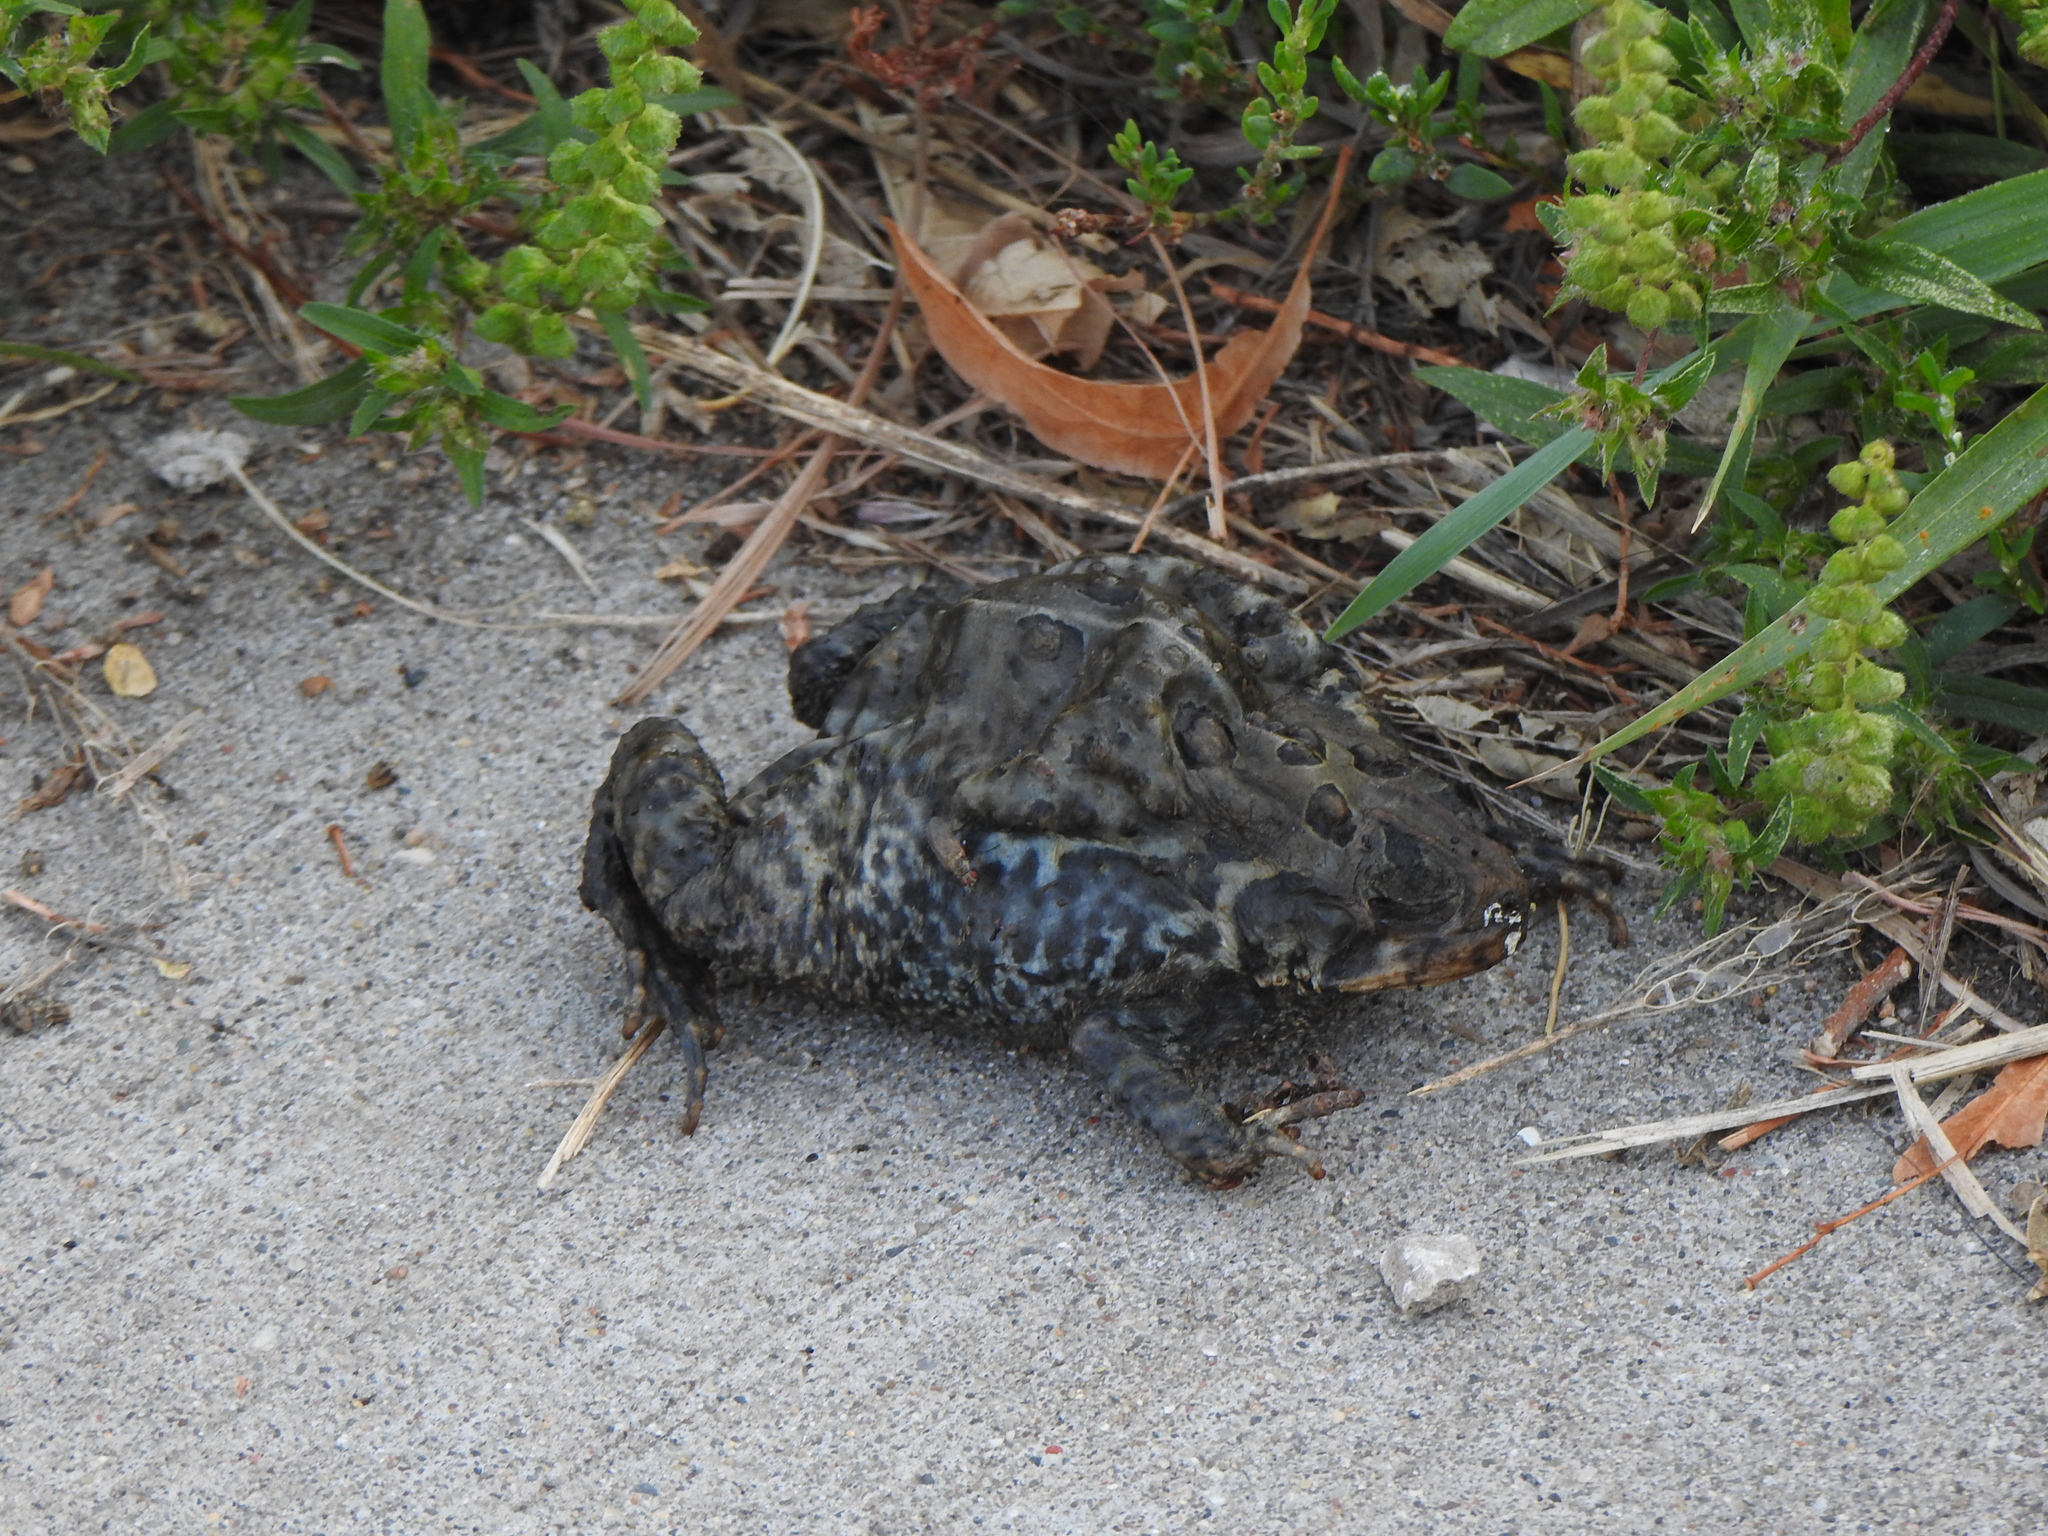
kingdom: Animalia
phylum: Chordata
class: Amphibia
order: Anura
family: Bufonidae
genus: Anaxyrus
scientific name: Anaxyrus americanus
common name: American toad
